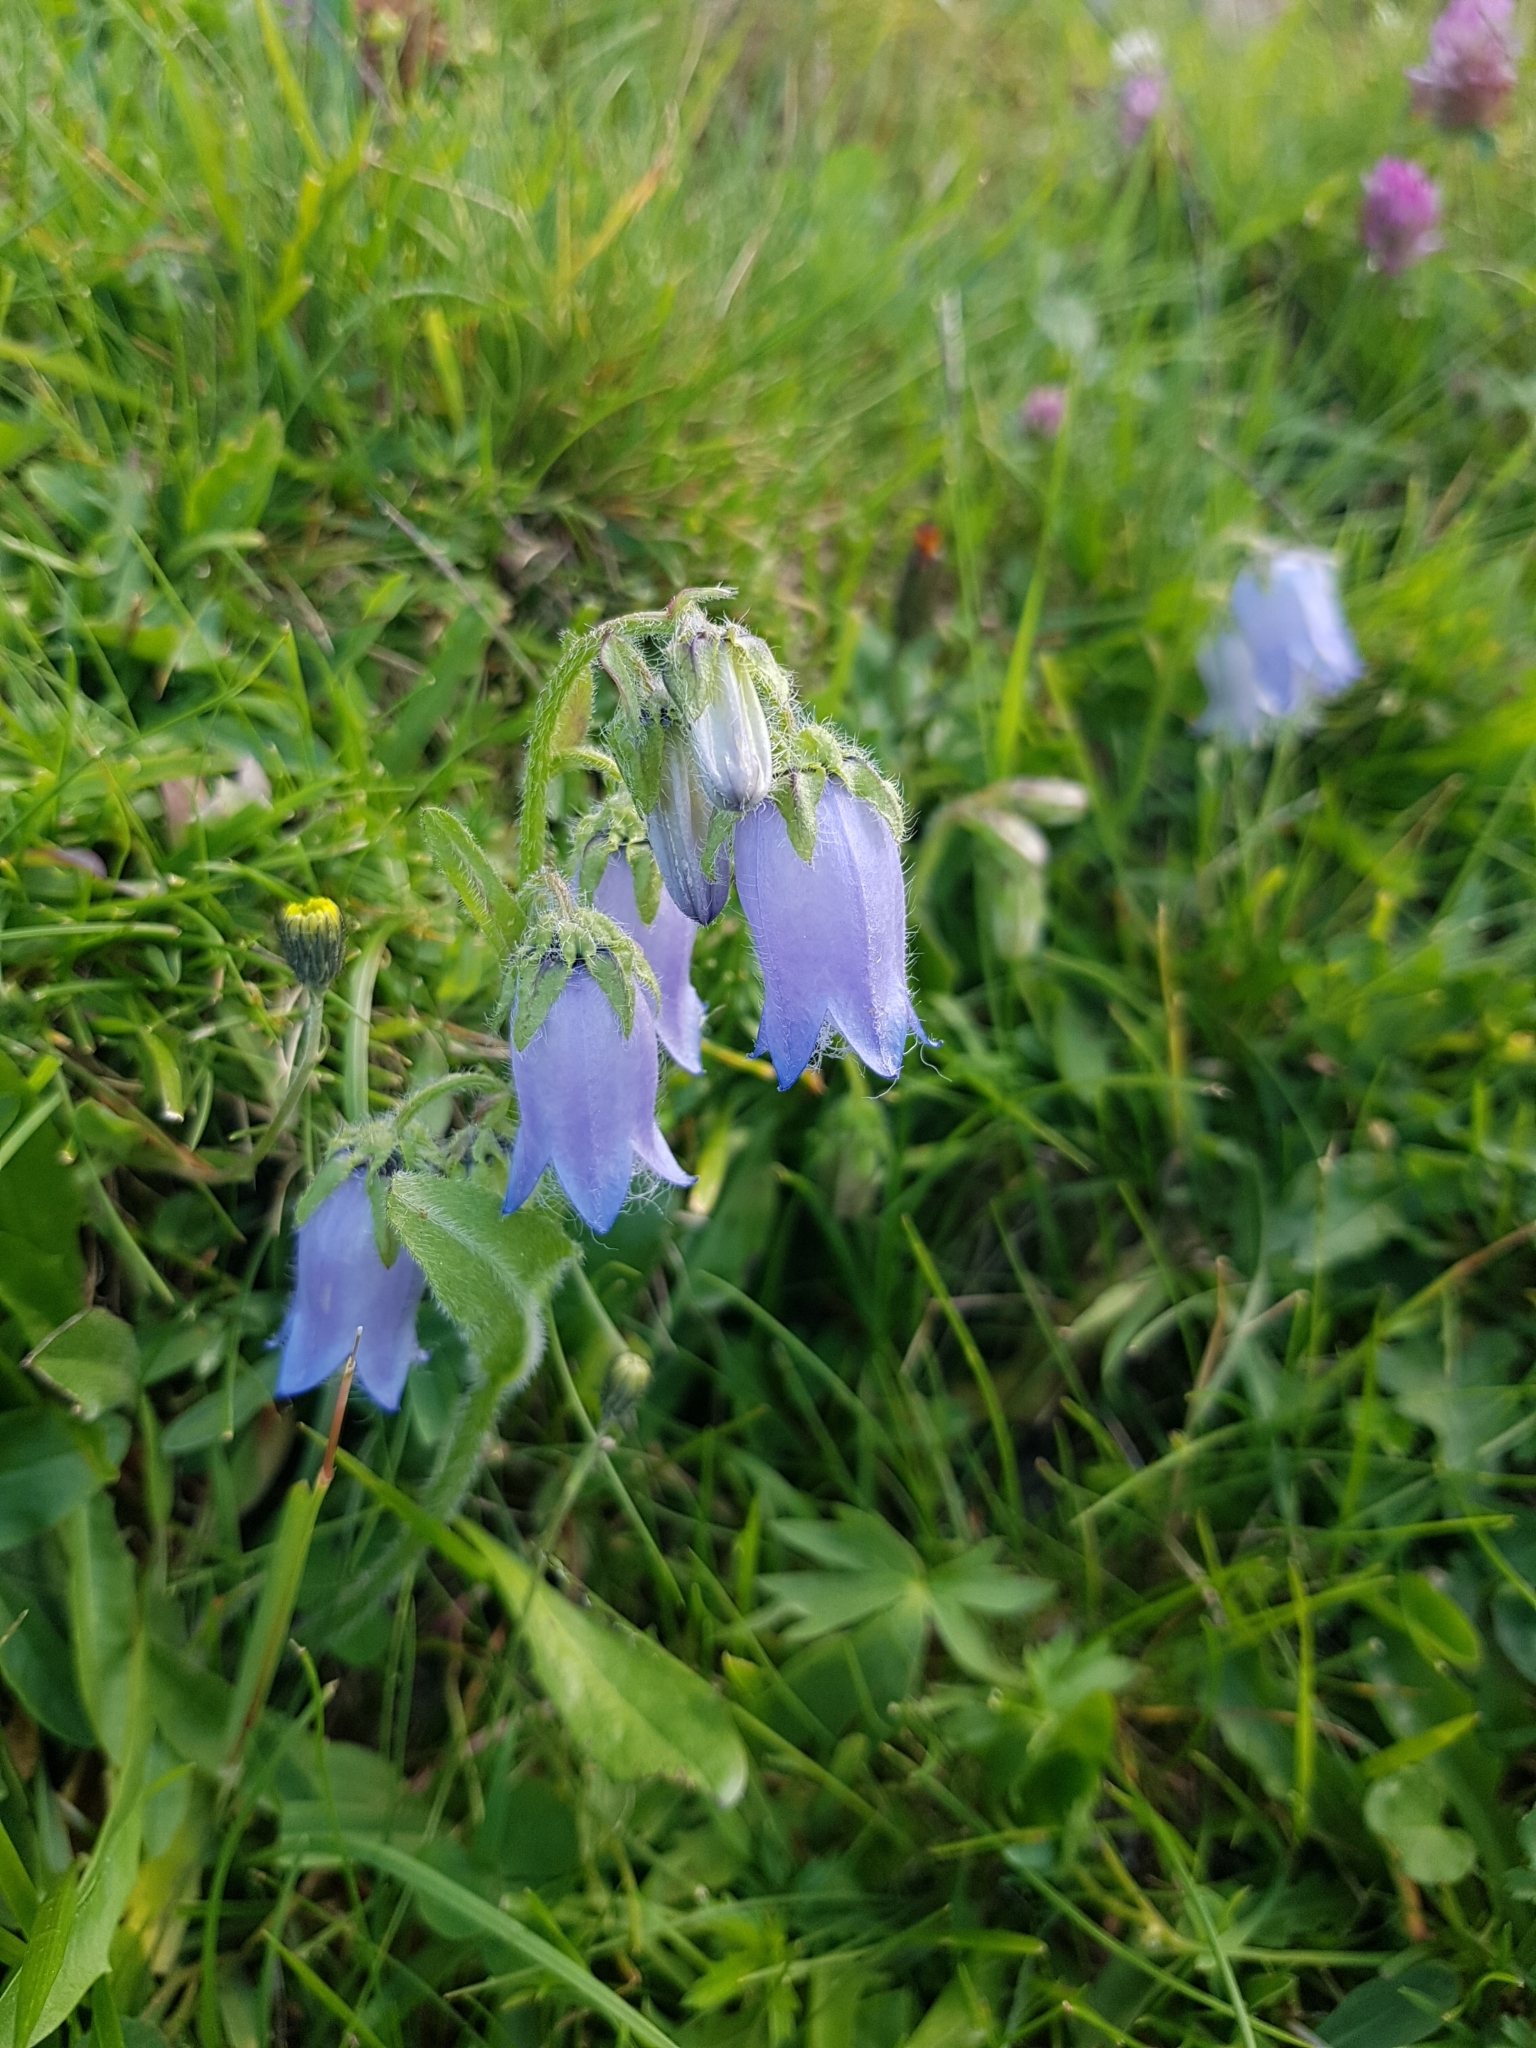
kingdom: Plantae
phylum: Tracheophyta
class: Magnoliopsida
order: Asterales
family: Campanulaceae
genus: Campanula
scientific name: Campanula barbata
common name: Bearded bellflower
